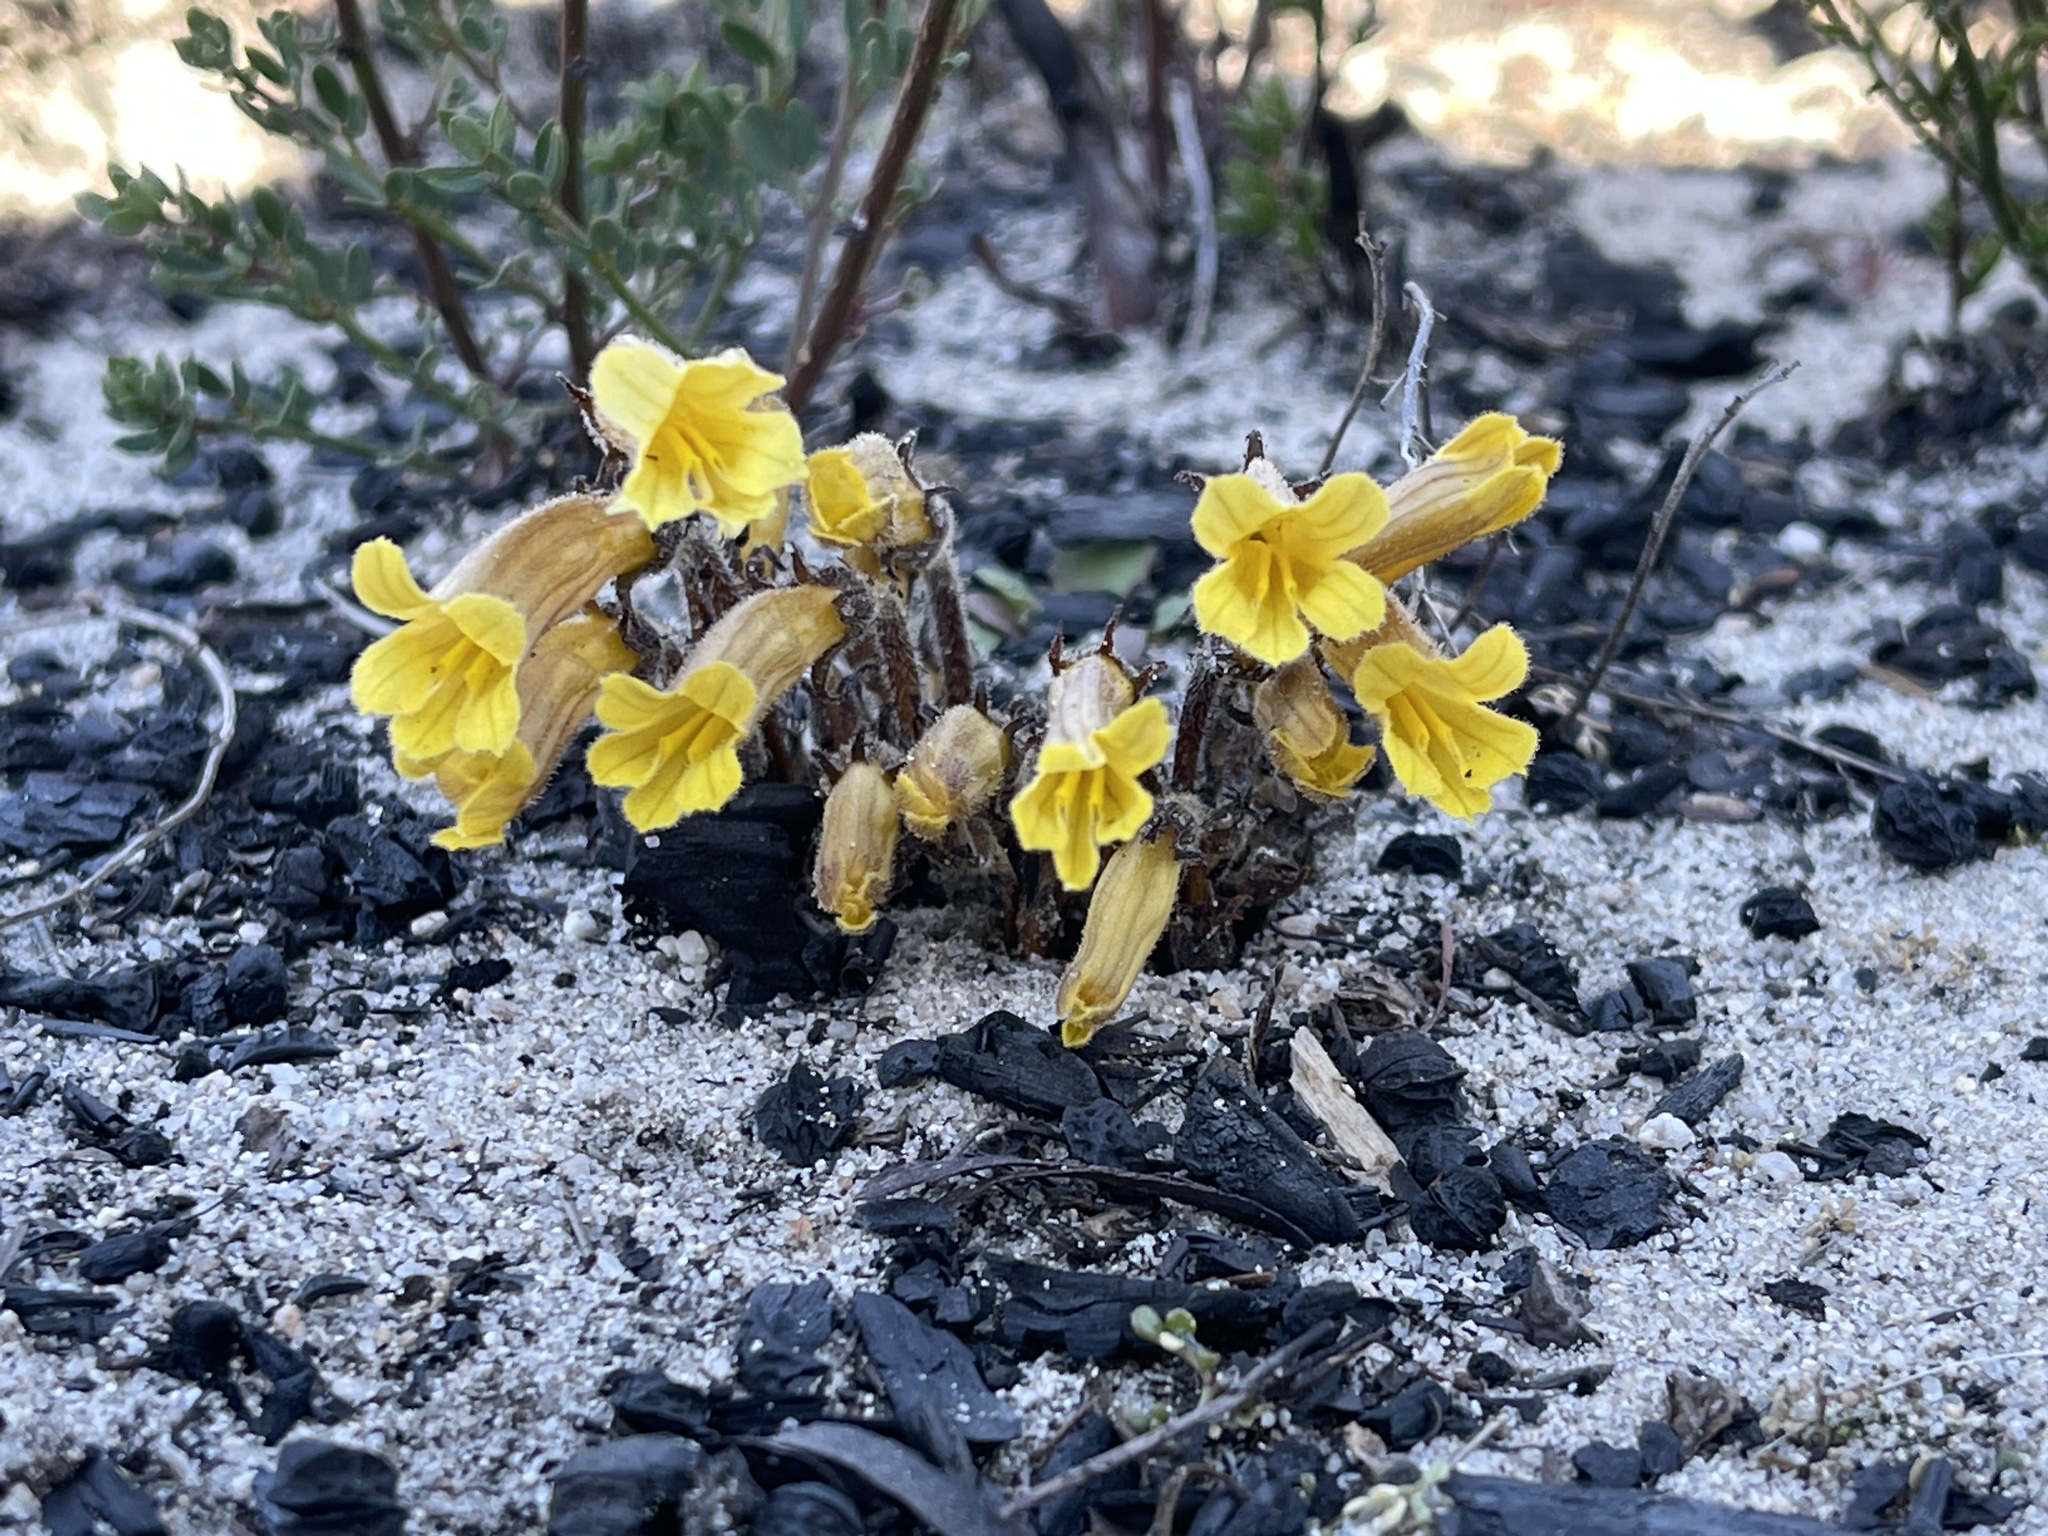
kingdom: Plantae
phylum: Tracheophyta
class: Magnoliopsida
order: Lamiales
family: Orobanchaceae
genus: Aphyllon
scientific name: Aphyllon franciscanum
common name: San francisco broomrape
